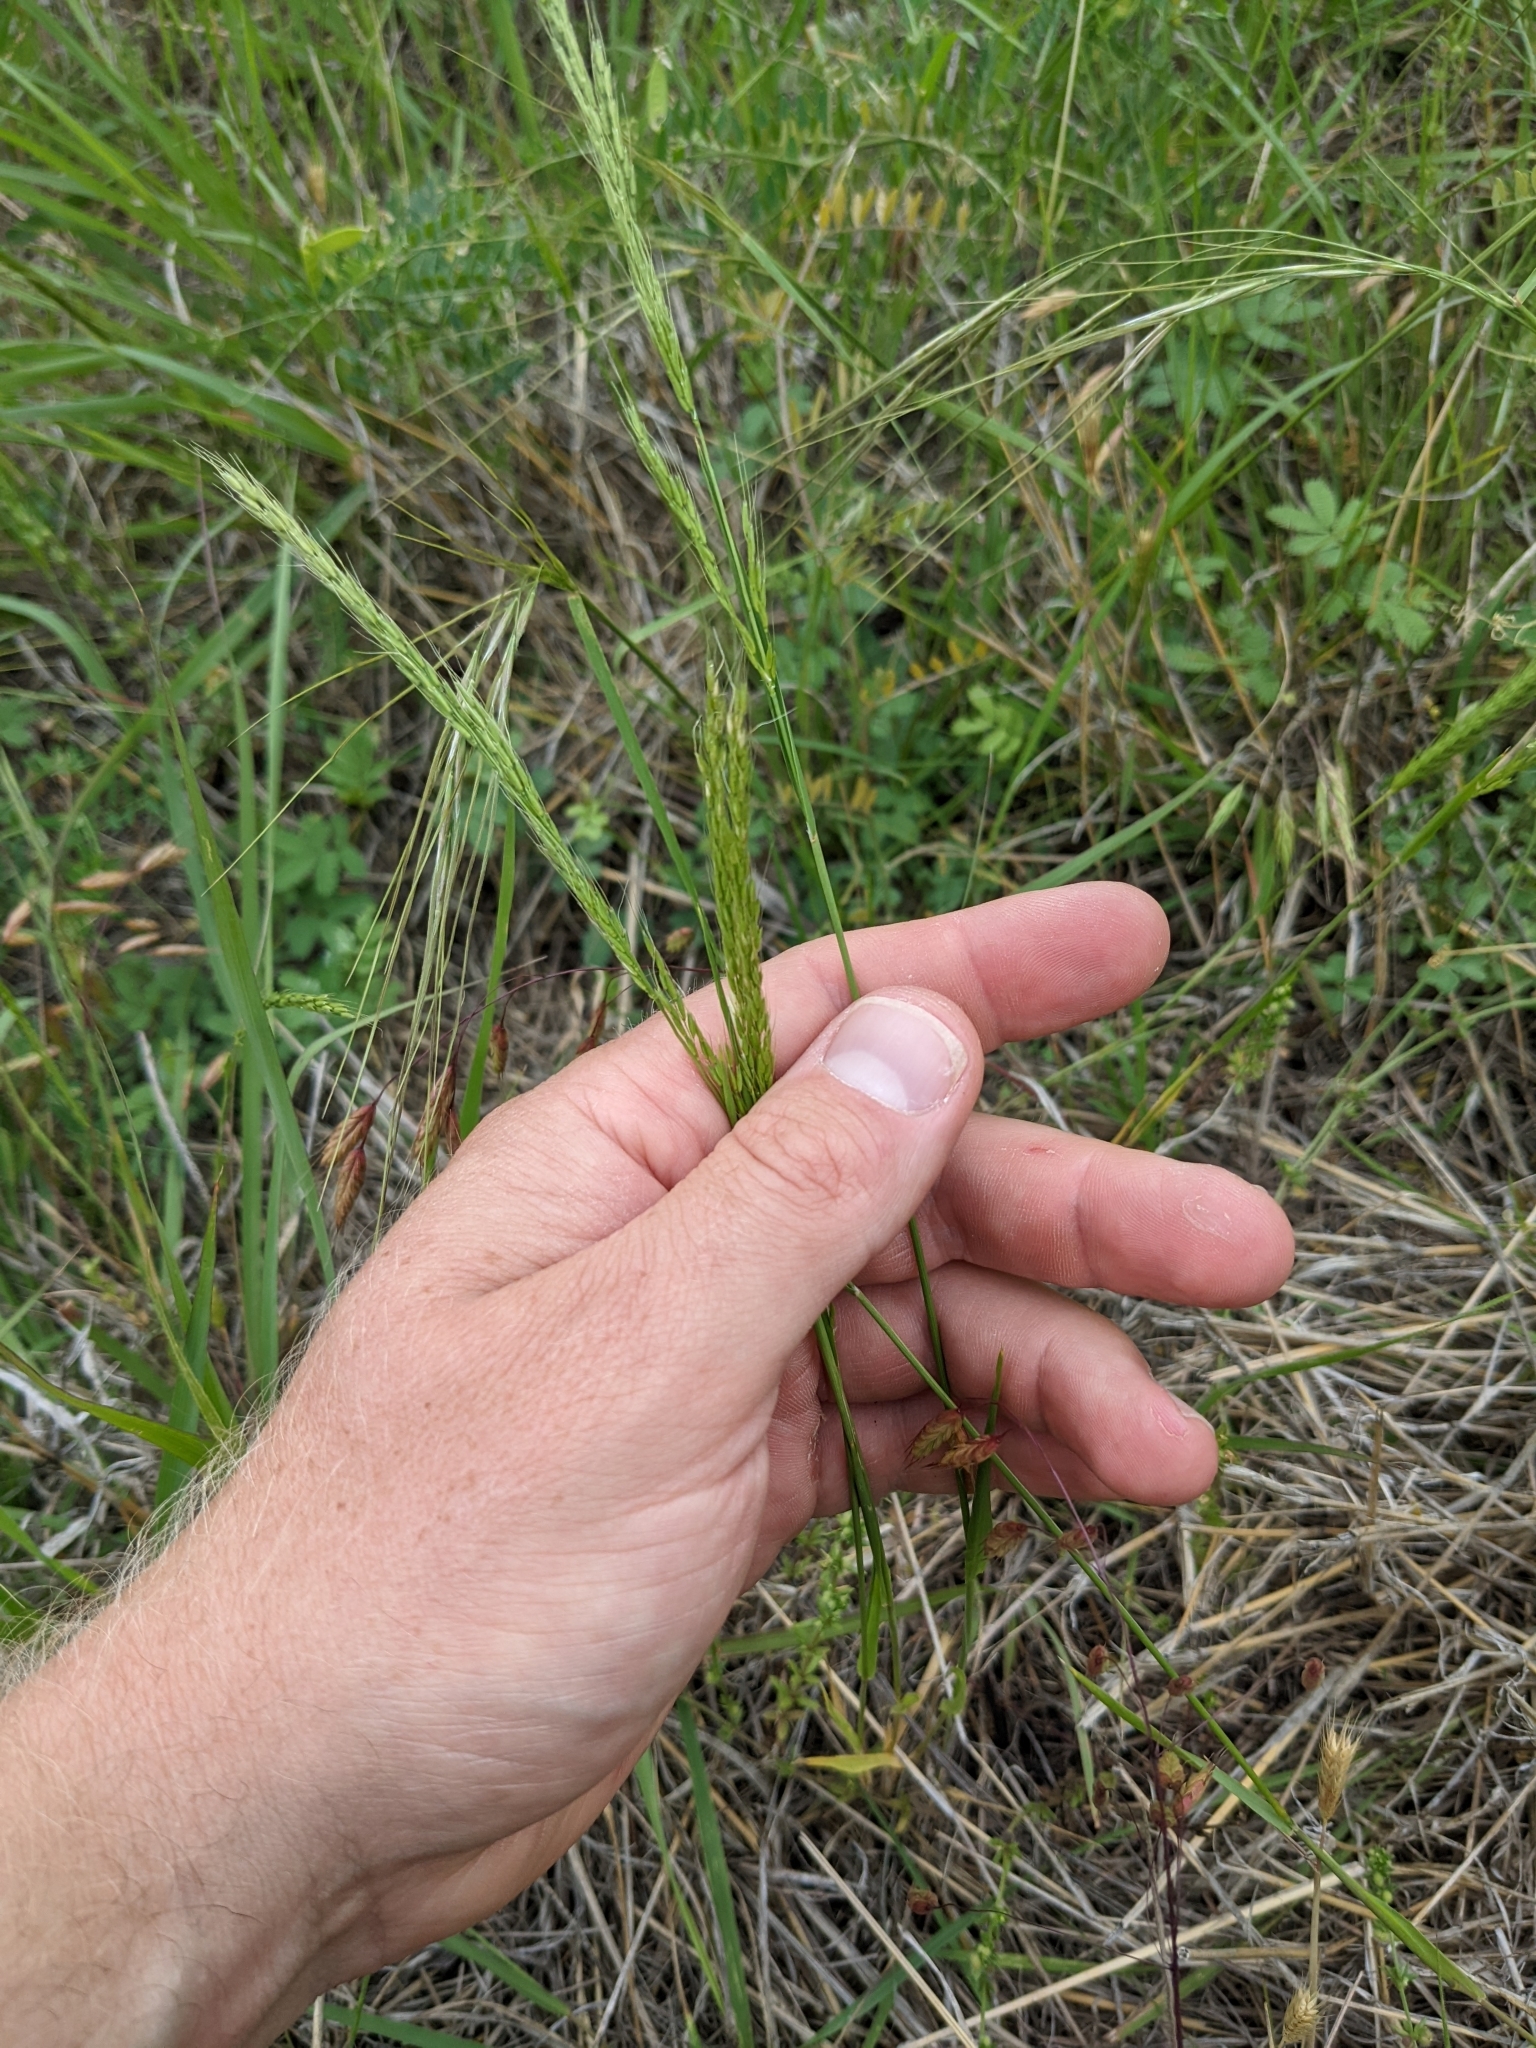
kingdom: Plantae
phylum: Tracheophyta
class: Liliopsida
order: Poales
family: Poaceae
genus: Limnodea
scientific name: Limnodea arkansana
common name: Ozark-grass
